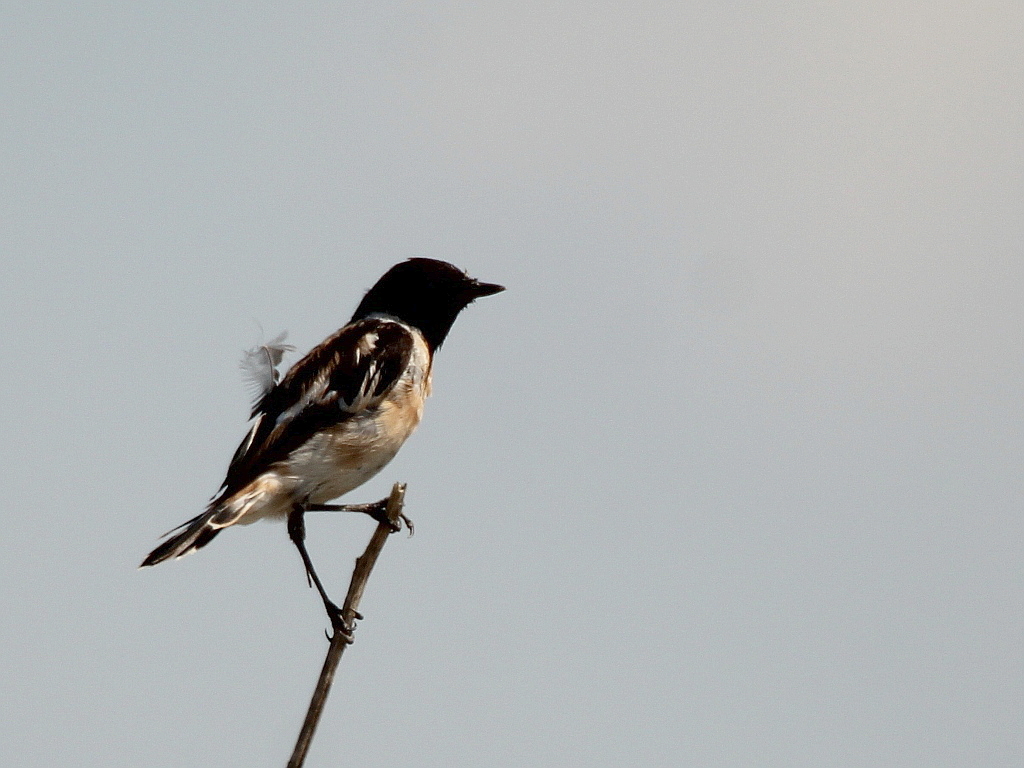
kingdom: Animalia
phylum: Chordata
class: Aves
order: Passeriformes
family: Muscicapidae
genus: Saxicola
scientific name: Saxicola maurus
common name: Siberian stonechat
